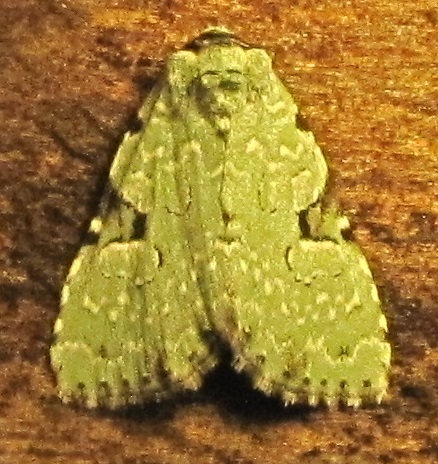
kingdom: Animalia
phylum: Arthropoda
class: Insecta
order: Lepidoptera
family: Noctuidae
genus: Leuconycta
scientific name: Leuconycta diphteroides
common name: Green leuconycta moth
